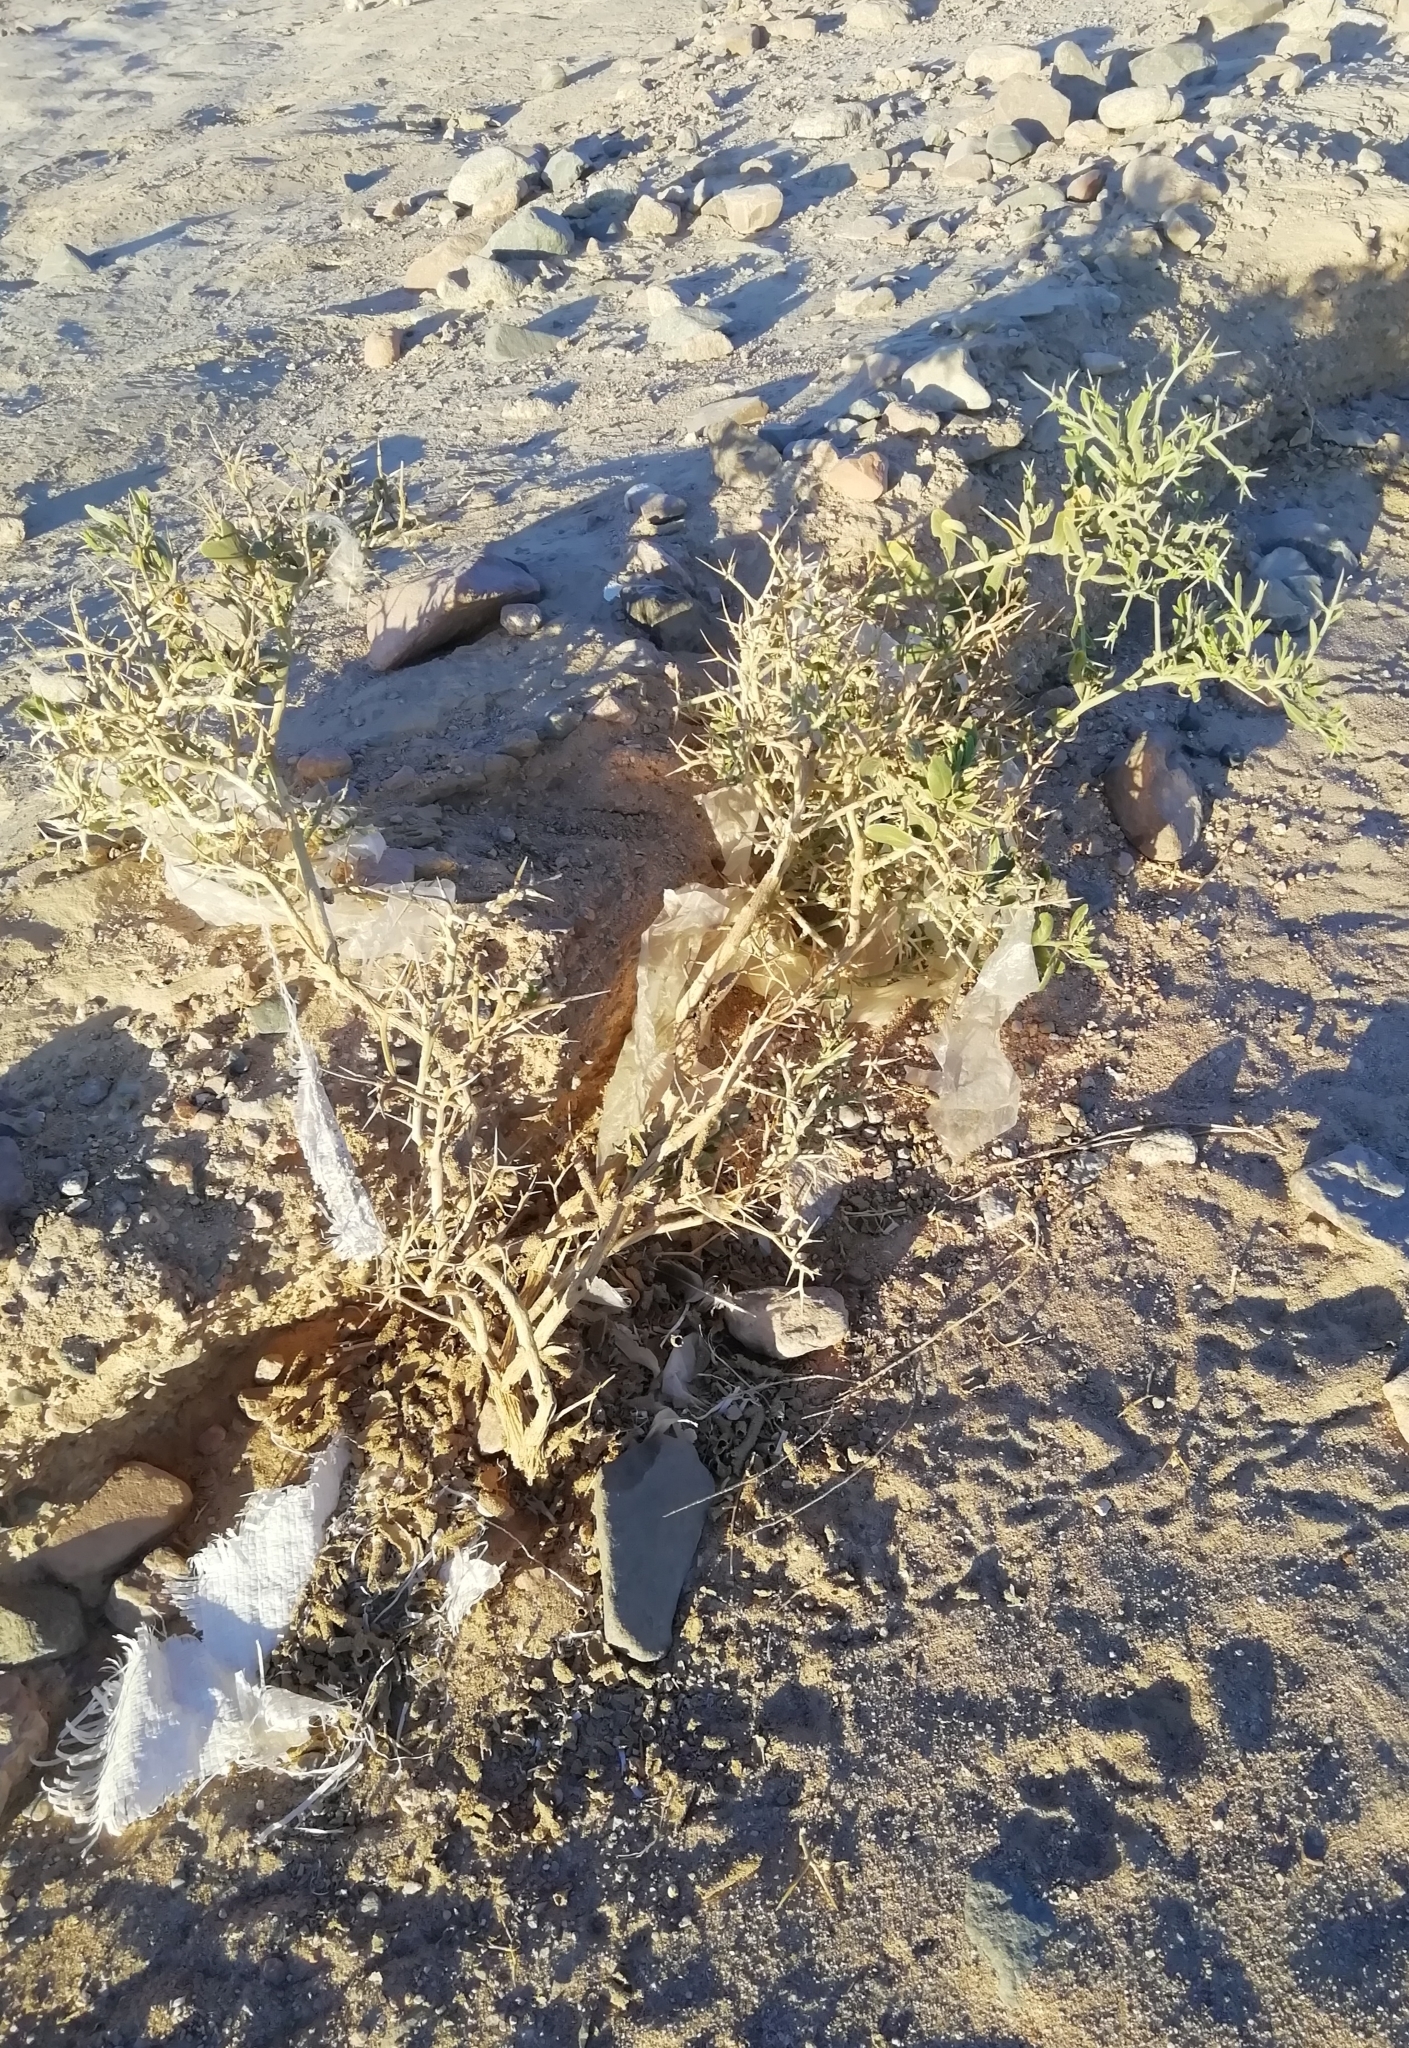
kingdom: Plantae
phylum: Tracheophyta
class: Magnoliopsida
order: Brassicales
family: Brassicaceae
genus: Zilla
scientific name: Zilla spinosa
